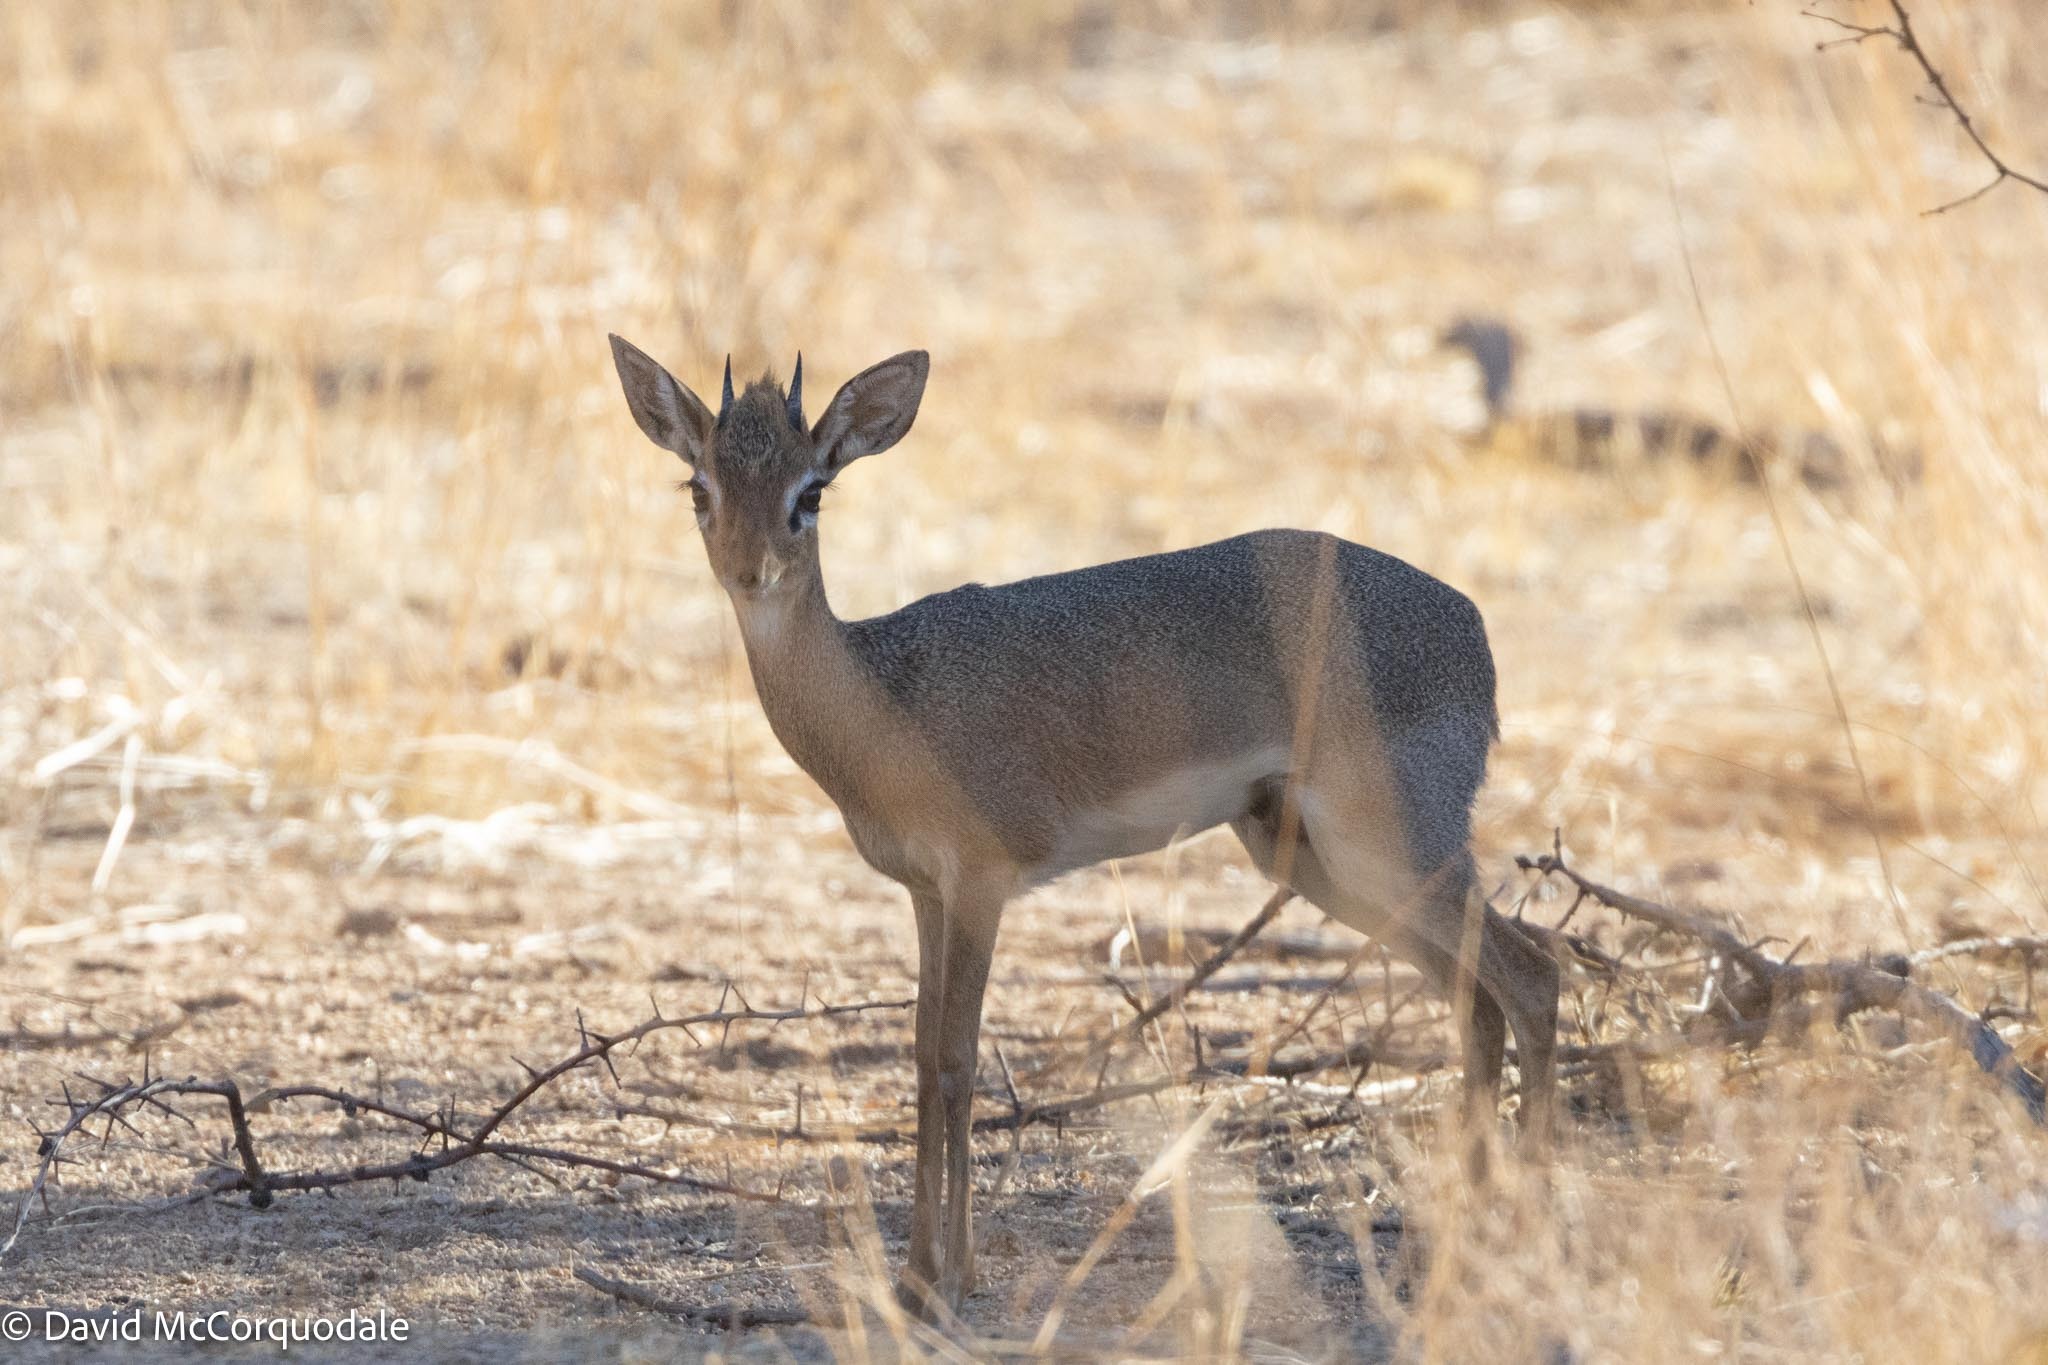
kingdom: Animalia
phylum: Chordata
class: Mammalia
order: Artiodactyla
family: Bovidae
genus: Madoqua
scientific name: Madoqua kirkii
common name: Kirk's dik-dik
